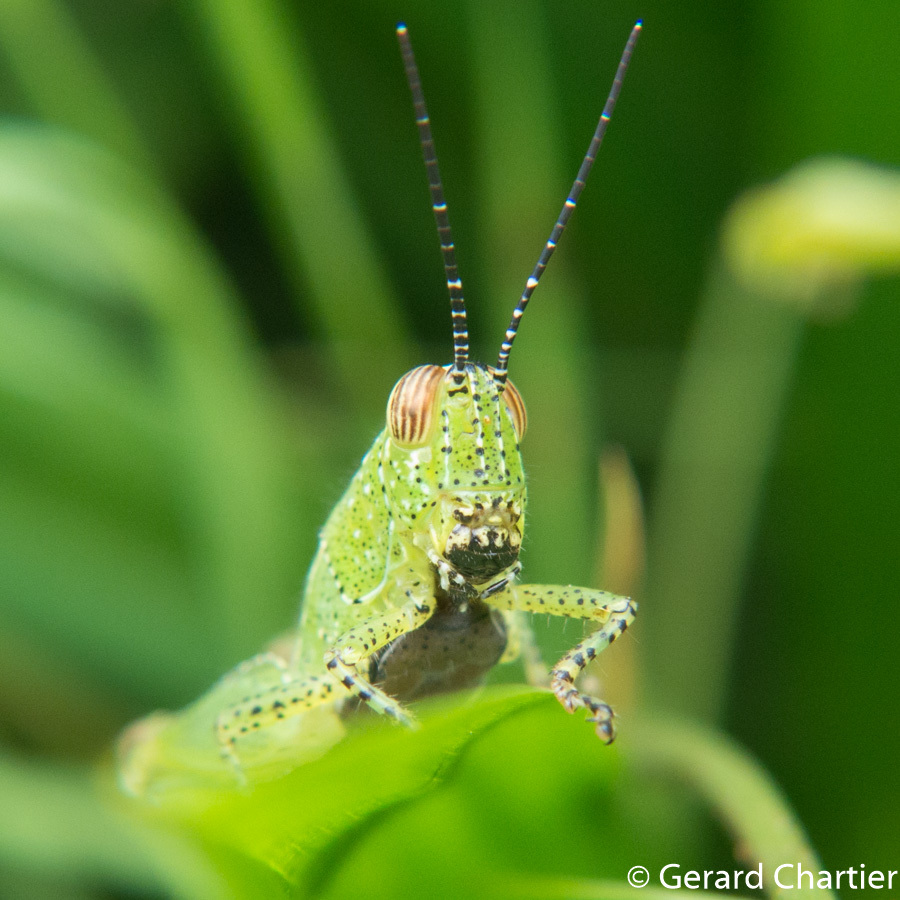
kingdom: Animalia
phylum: Arthropoda
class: Insecta
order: Orthoptera
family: Acrididae
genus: Xenocatantops
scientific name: Xenocatantops humile
